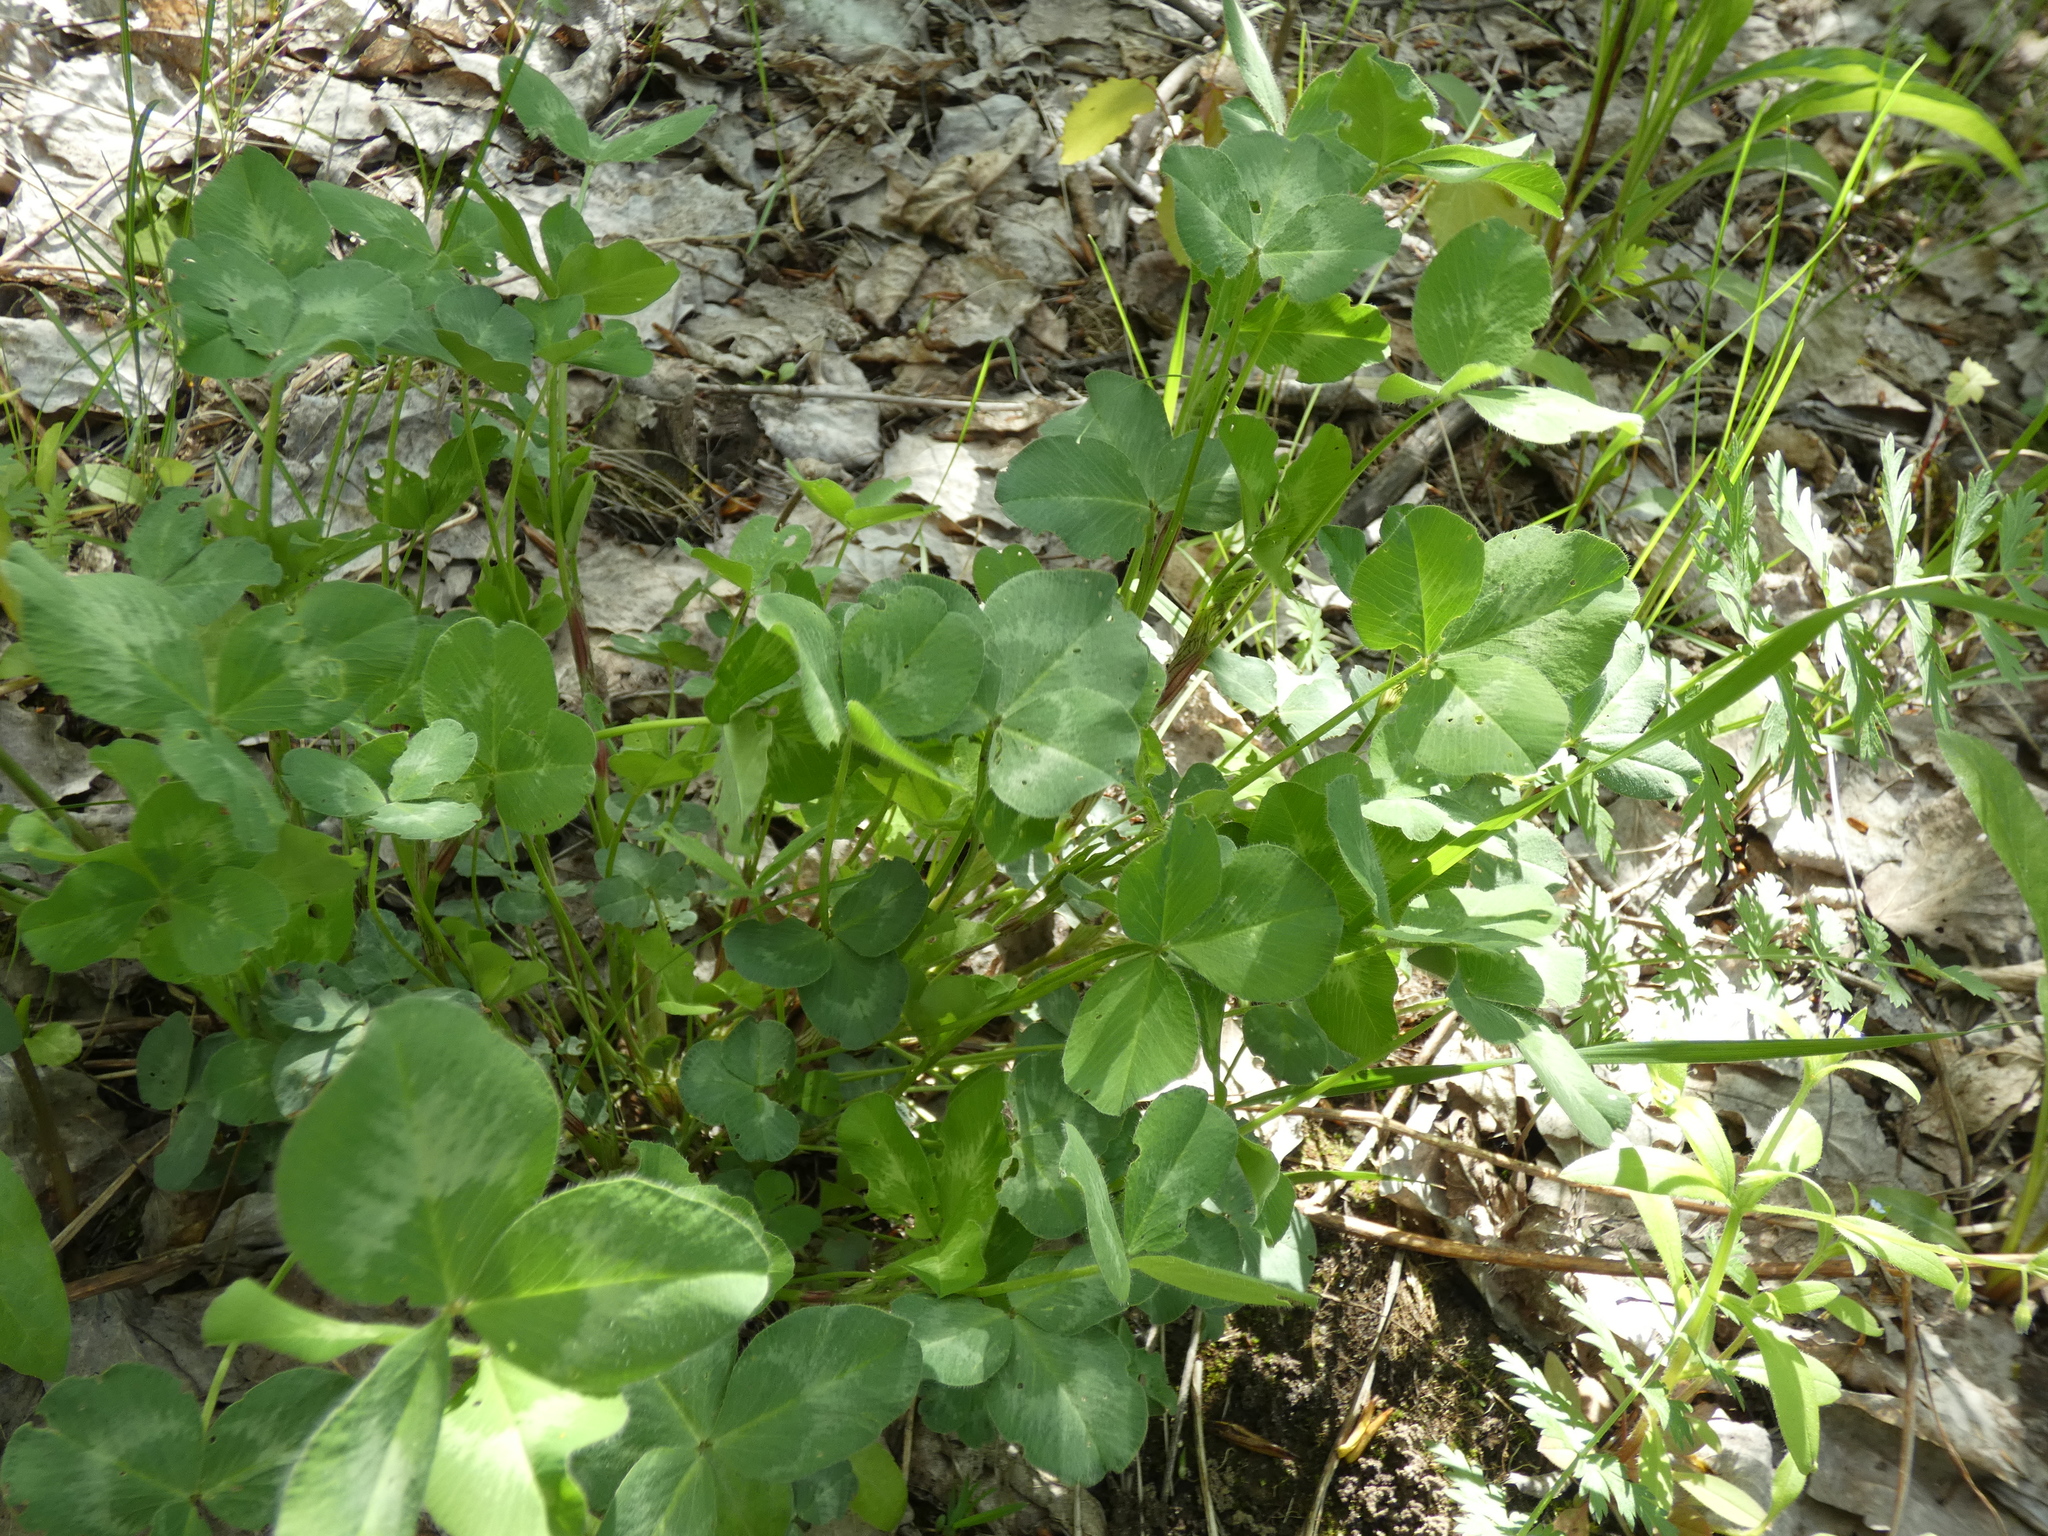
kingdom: Plantae
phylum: Tracheophyta
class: Magnoliopsida
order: Fabales
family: Fabaceae
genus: Trifolium
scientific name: Trifolium pratense
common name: Red clover
